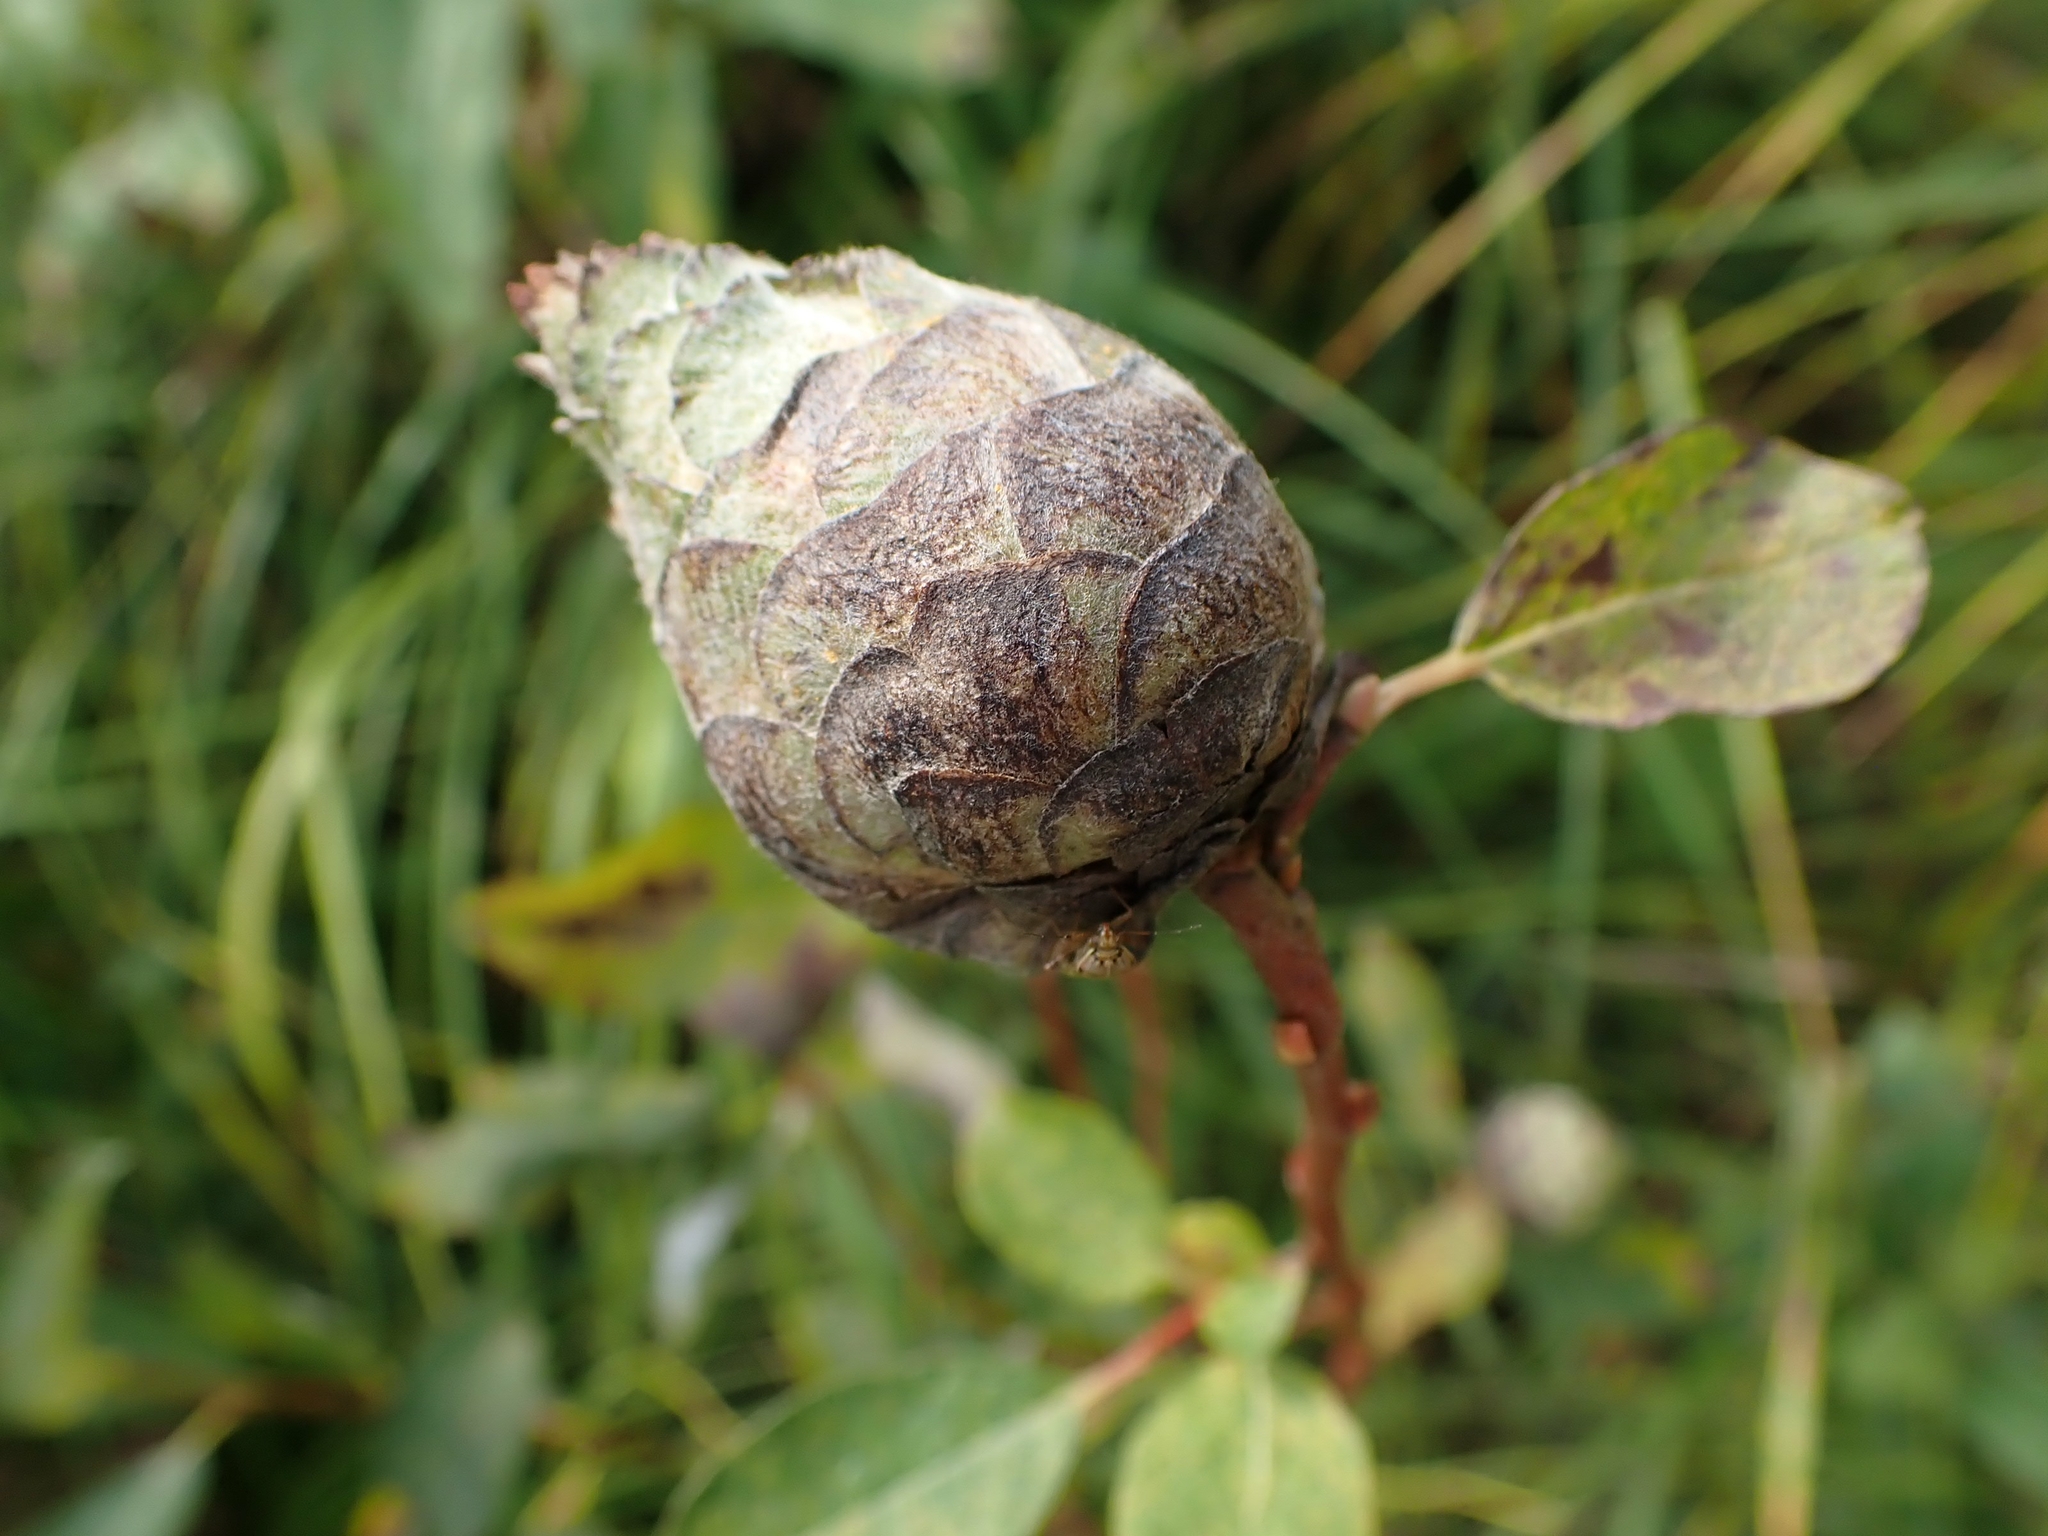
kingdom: Animalia
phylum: Arthropoda
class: Insecta
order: Diptera
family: Cecidomyiidae
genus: Rabdophaga
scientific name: Rabdophaga strobiloides
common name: Willow pinecone gall midge
